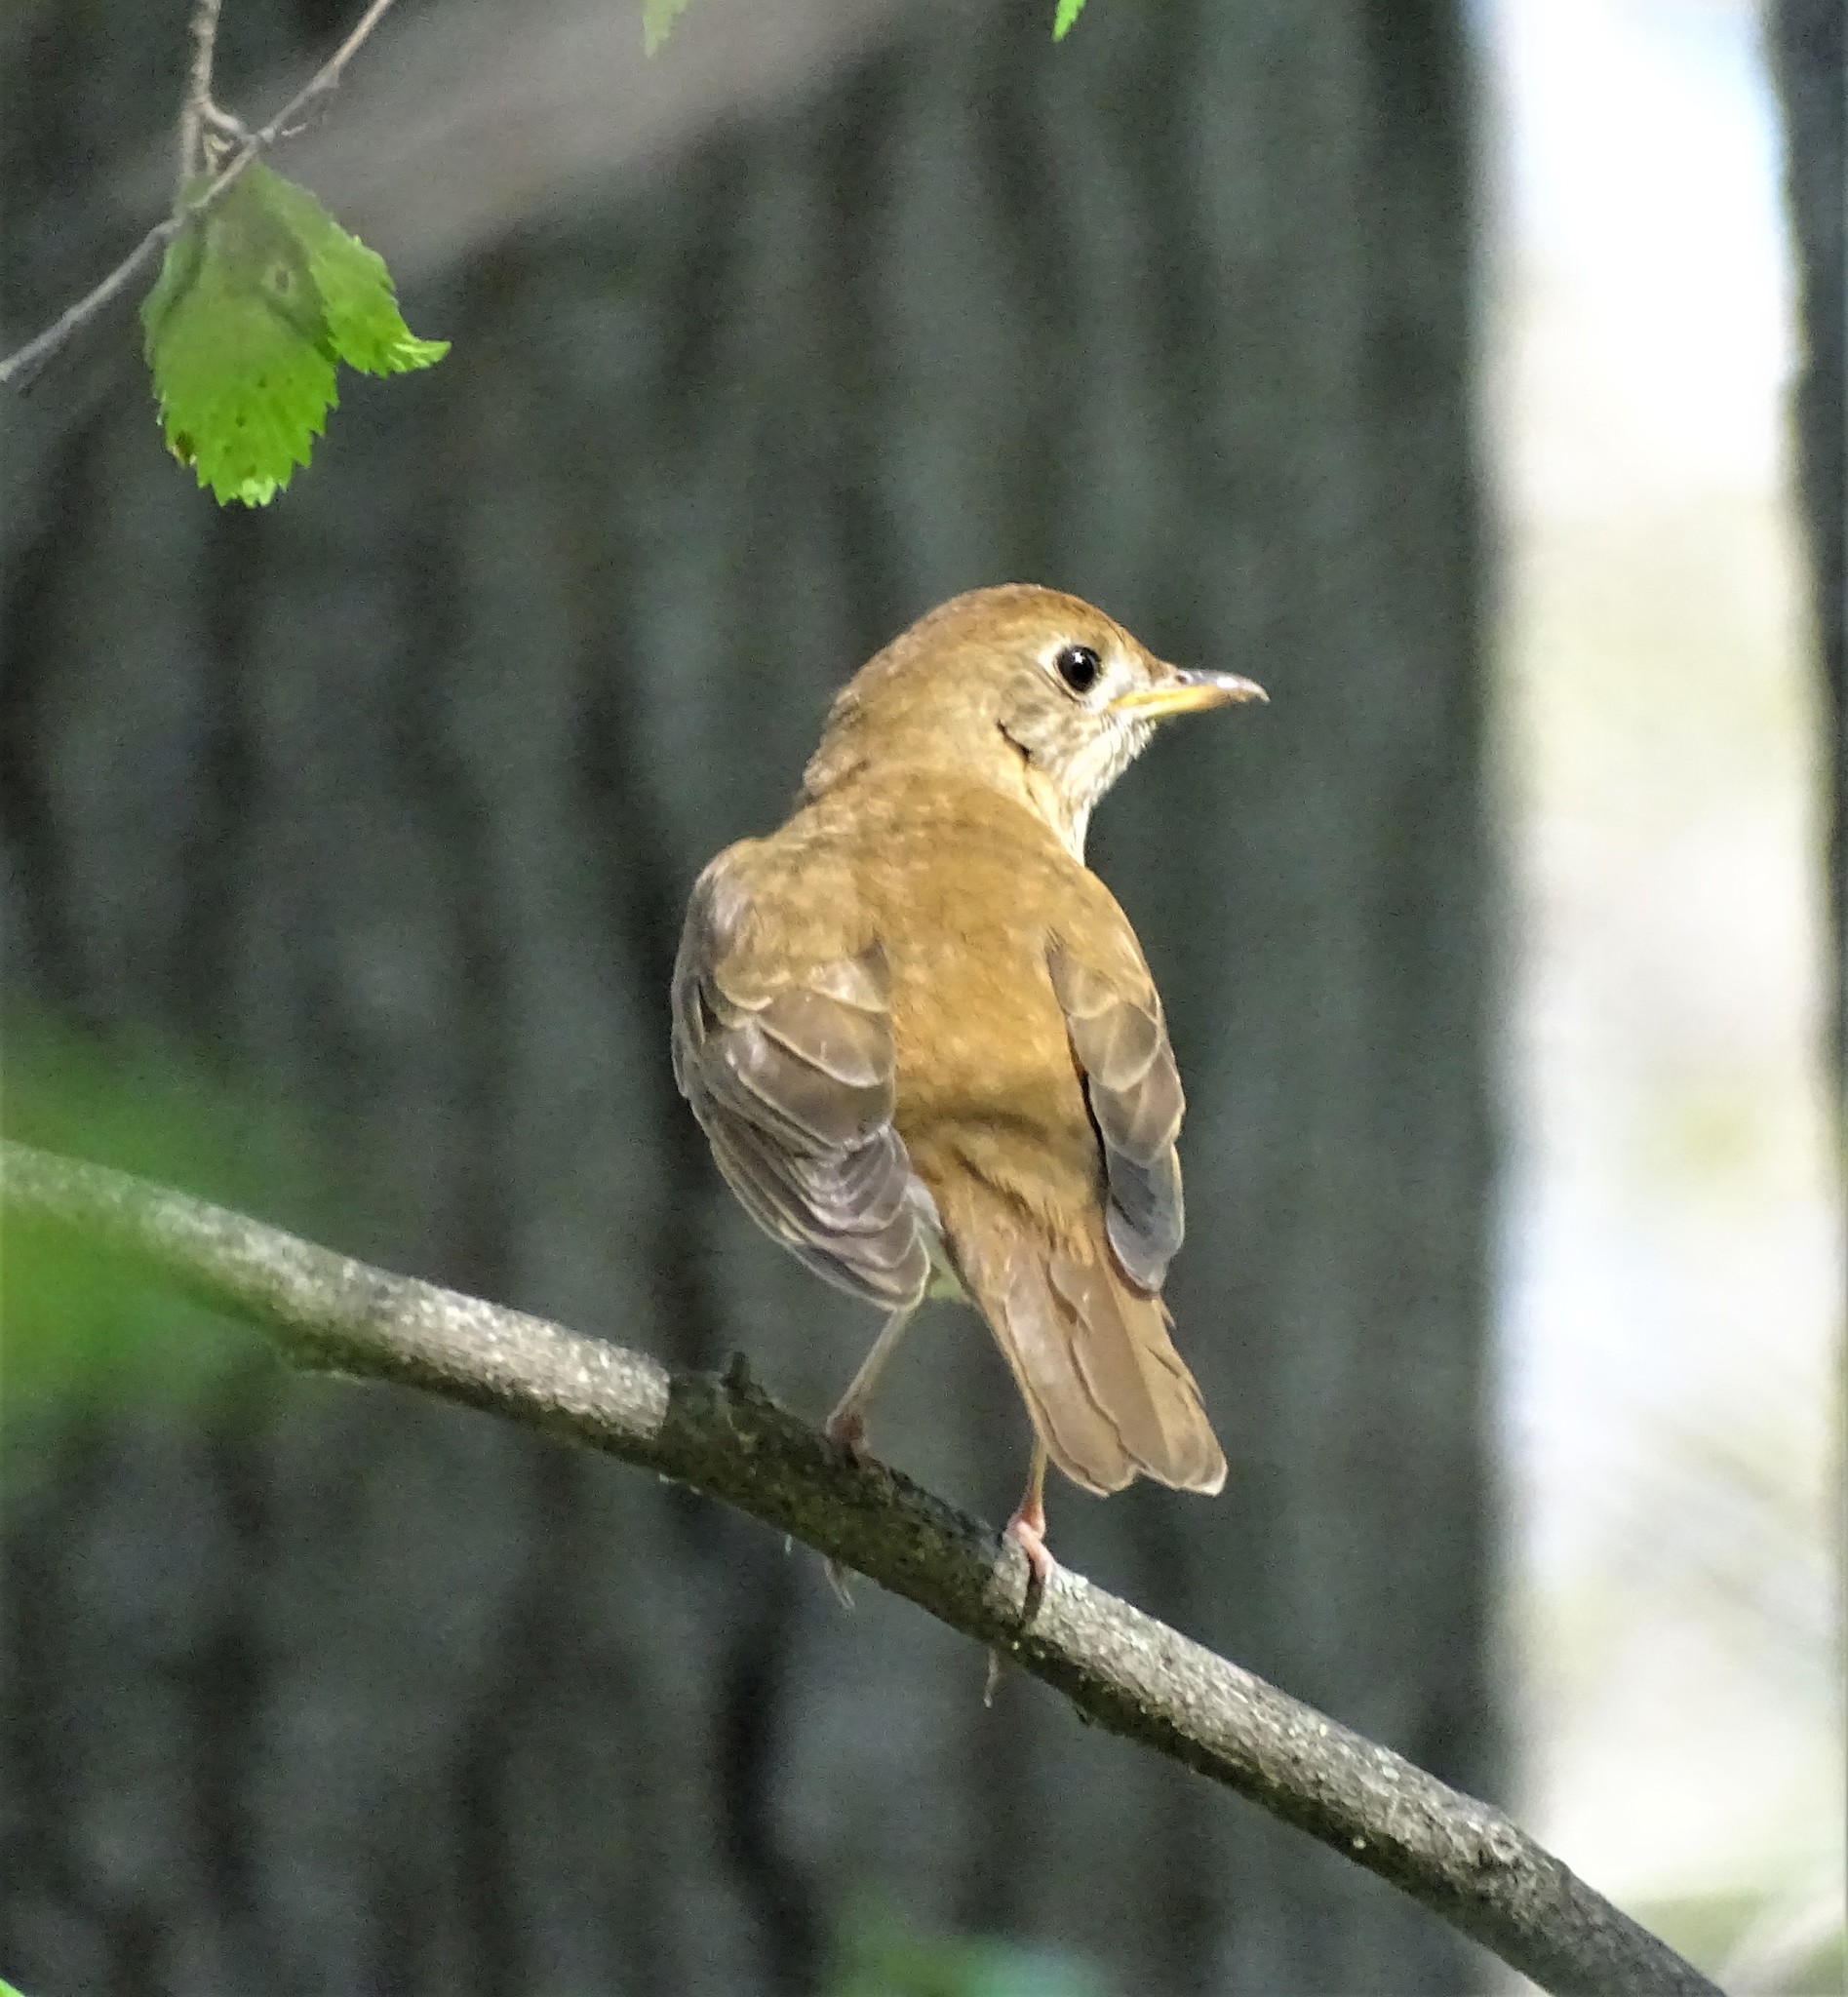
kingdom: Animalia
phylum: Chordata
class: Aves
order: Passeriformes
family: Turdidae
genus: Catharus
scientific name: Catharus fuscescens
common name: Veery
